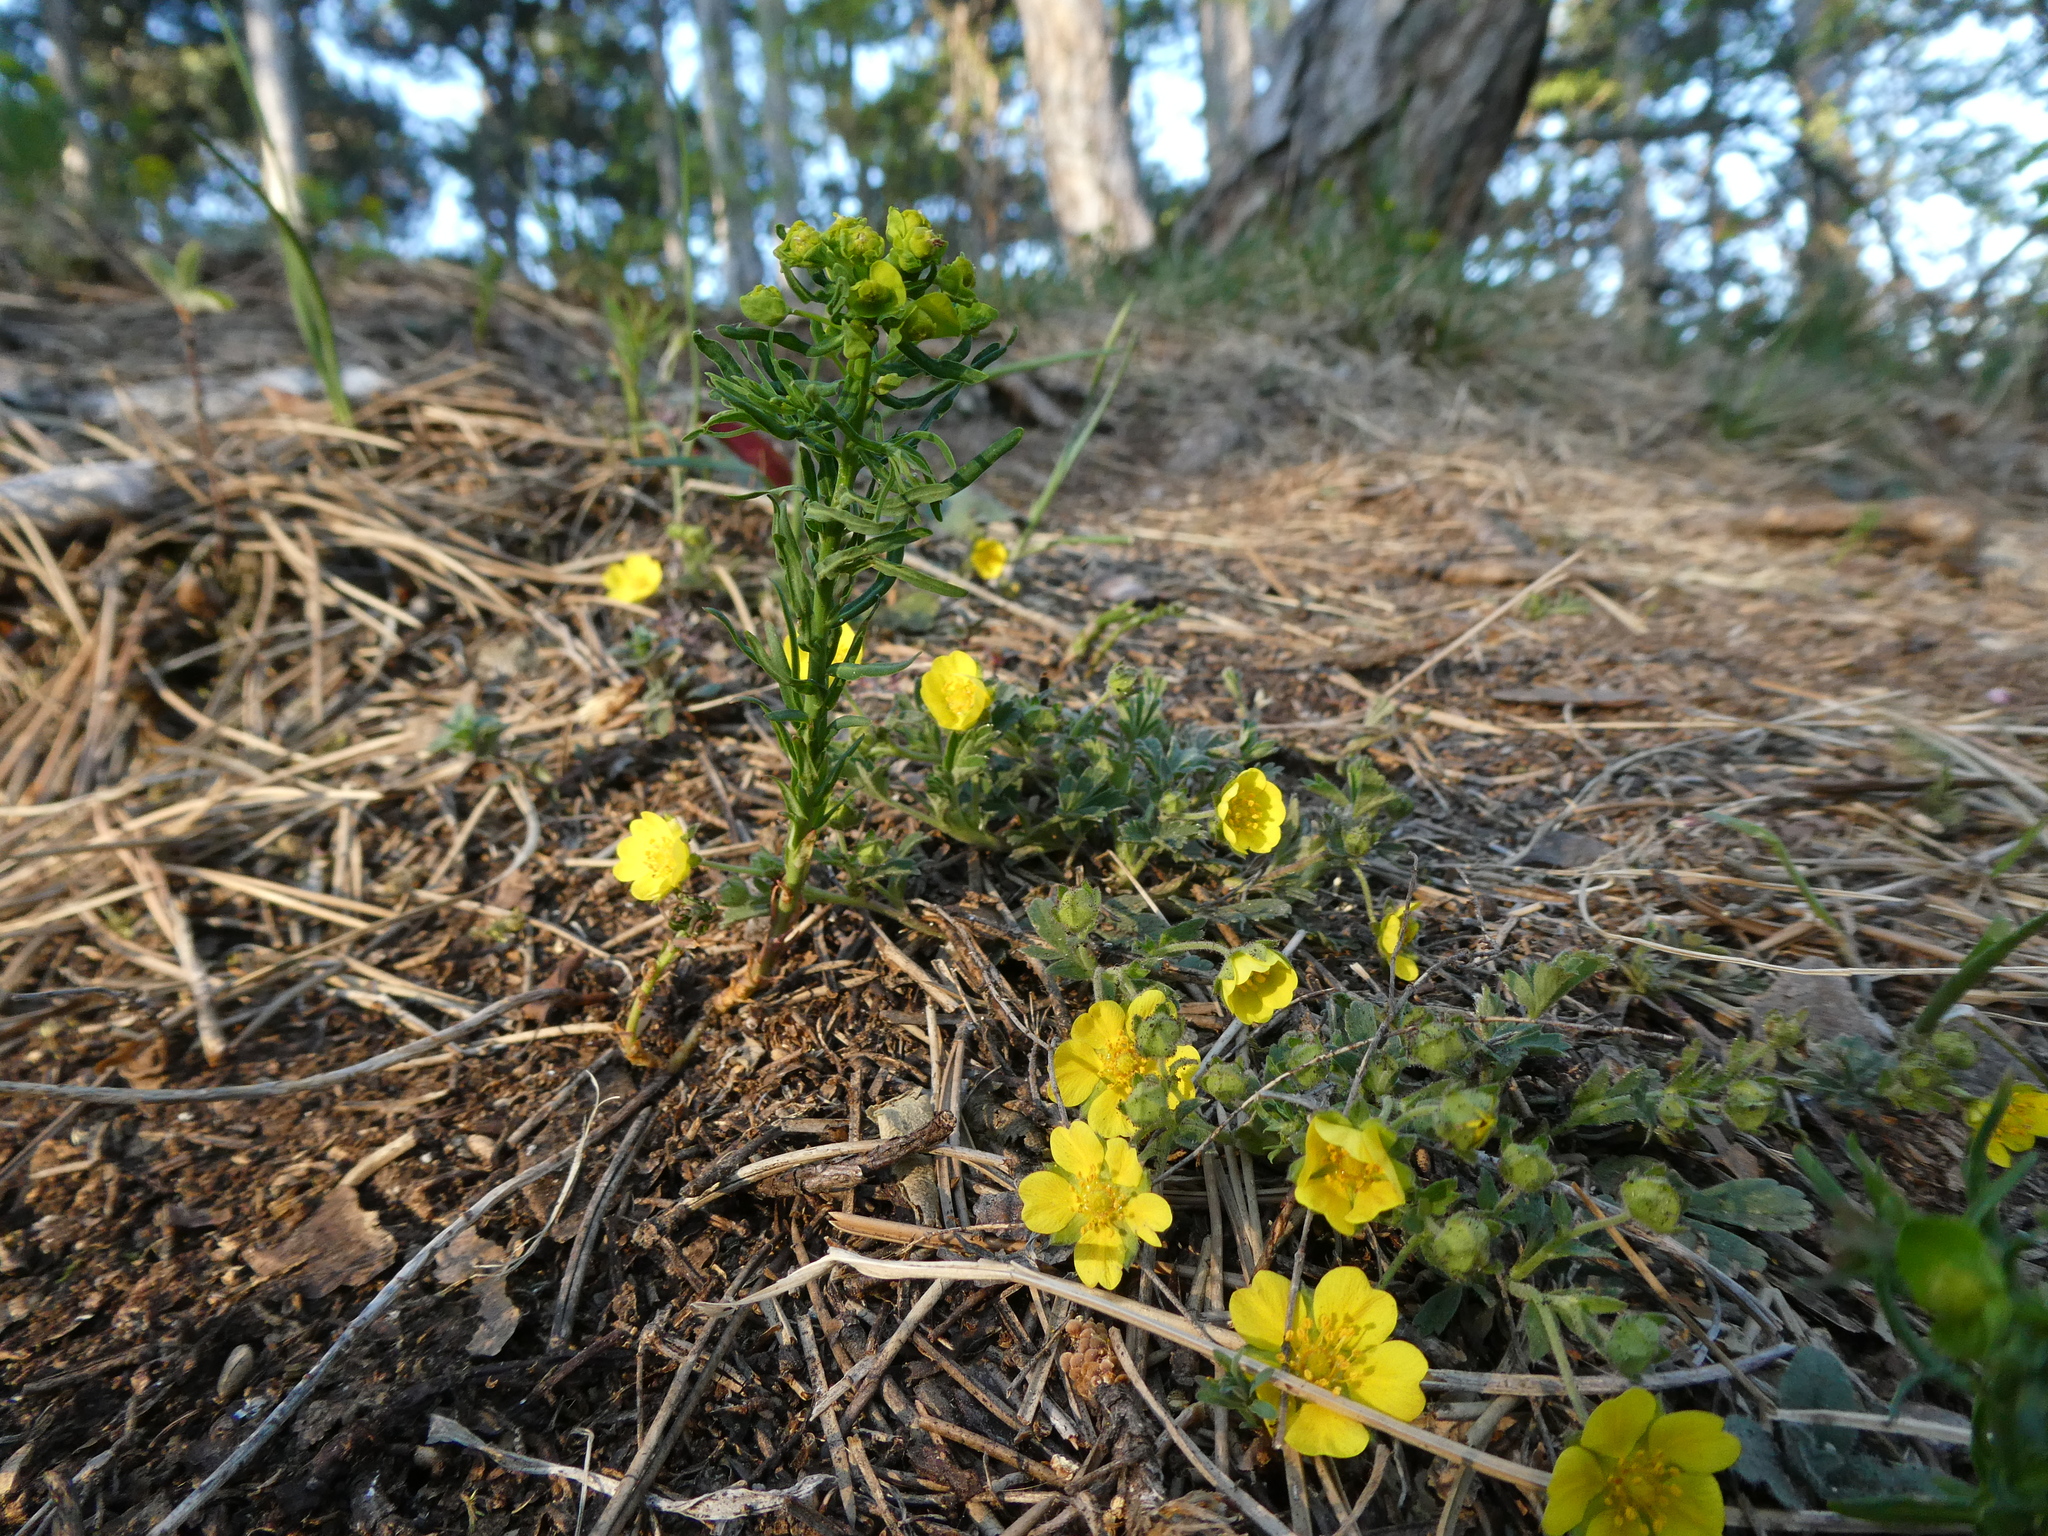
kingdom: Plantae
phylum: Tracheophyta
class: Magnoliopsida
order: Malpighiales
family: Euphorbiaceae
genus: Euphorbia
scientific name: Euphorbia cyparissias
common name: Cypress spurge
